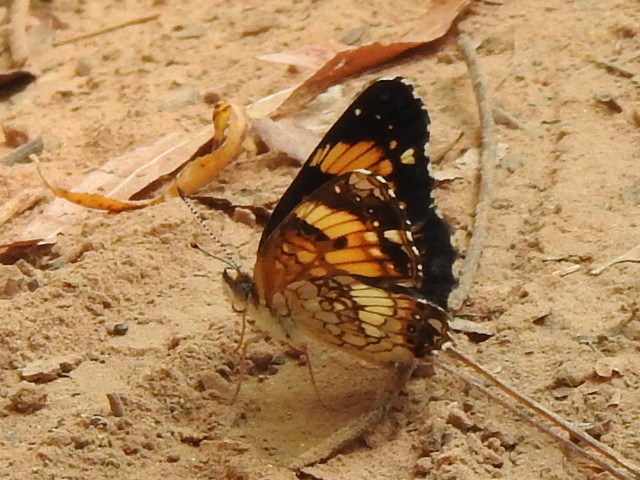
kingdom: Animalia
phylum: Arthropoda
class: Insecta
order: Lepidoptera
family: Nymphalidae
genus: Chlosyne
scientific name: Chlosyne nycteis
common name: Silvery checkerspot
